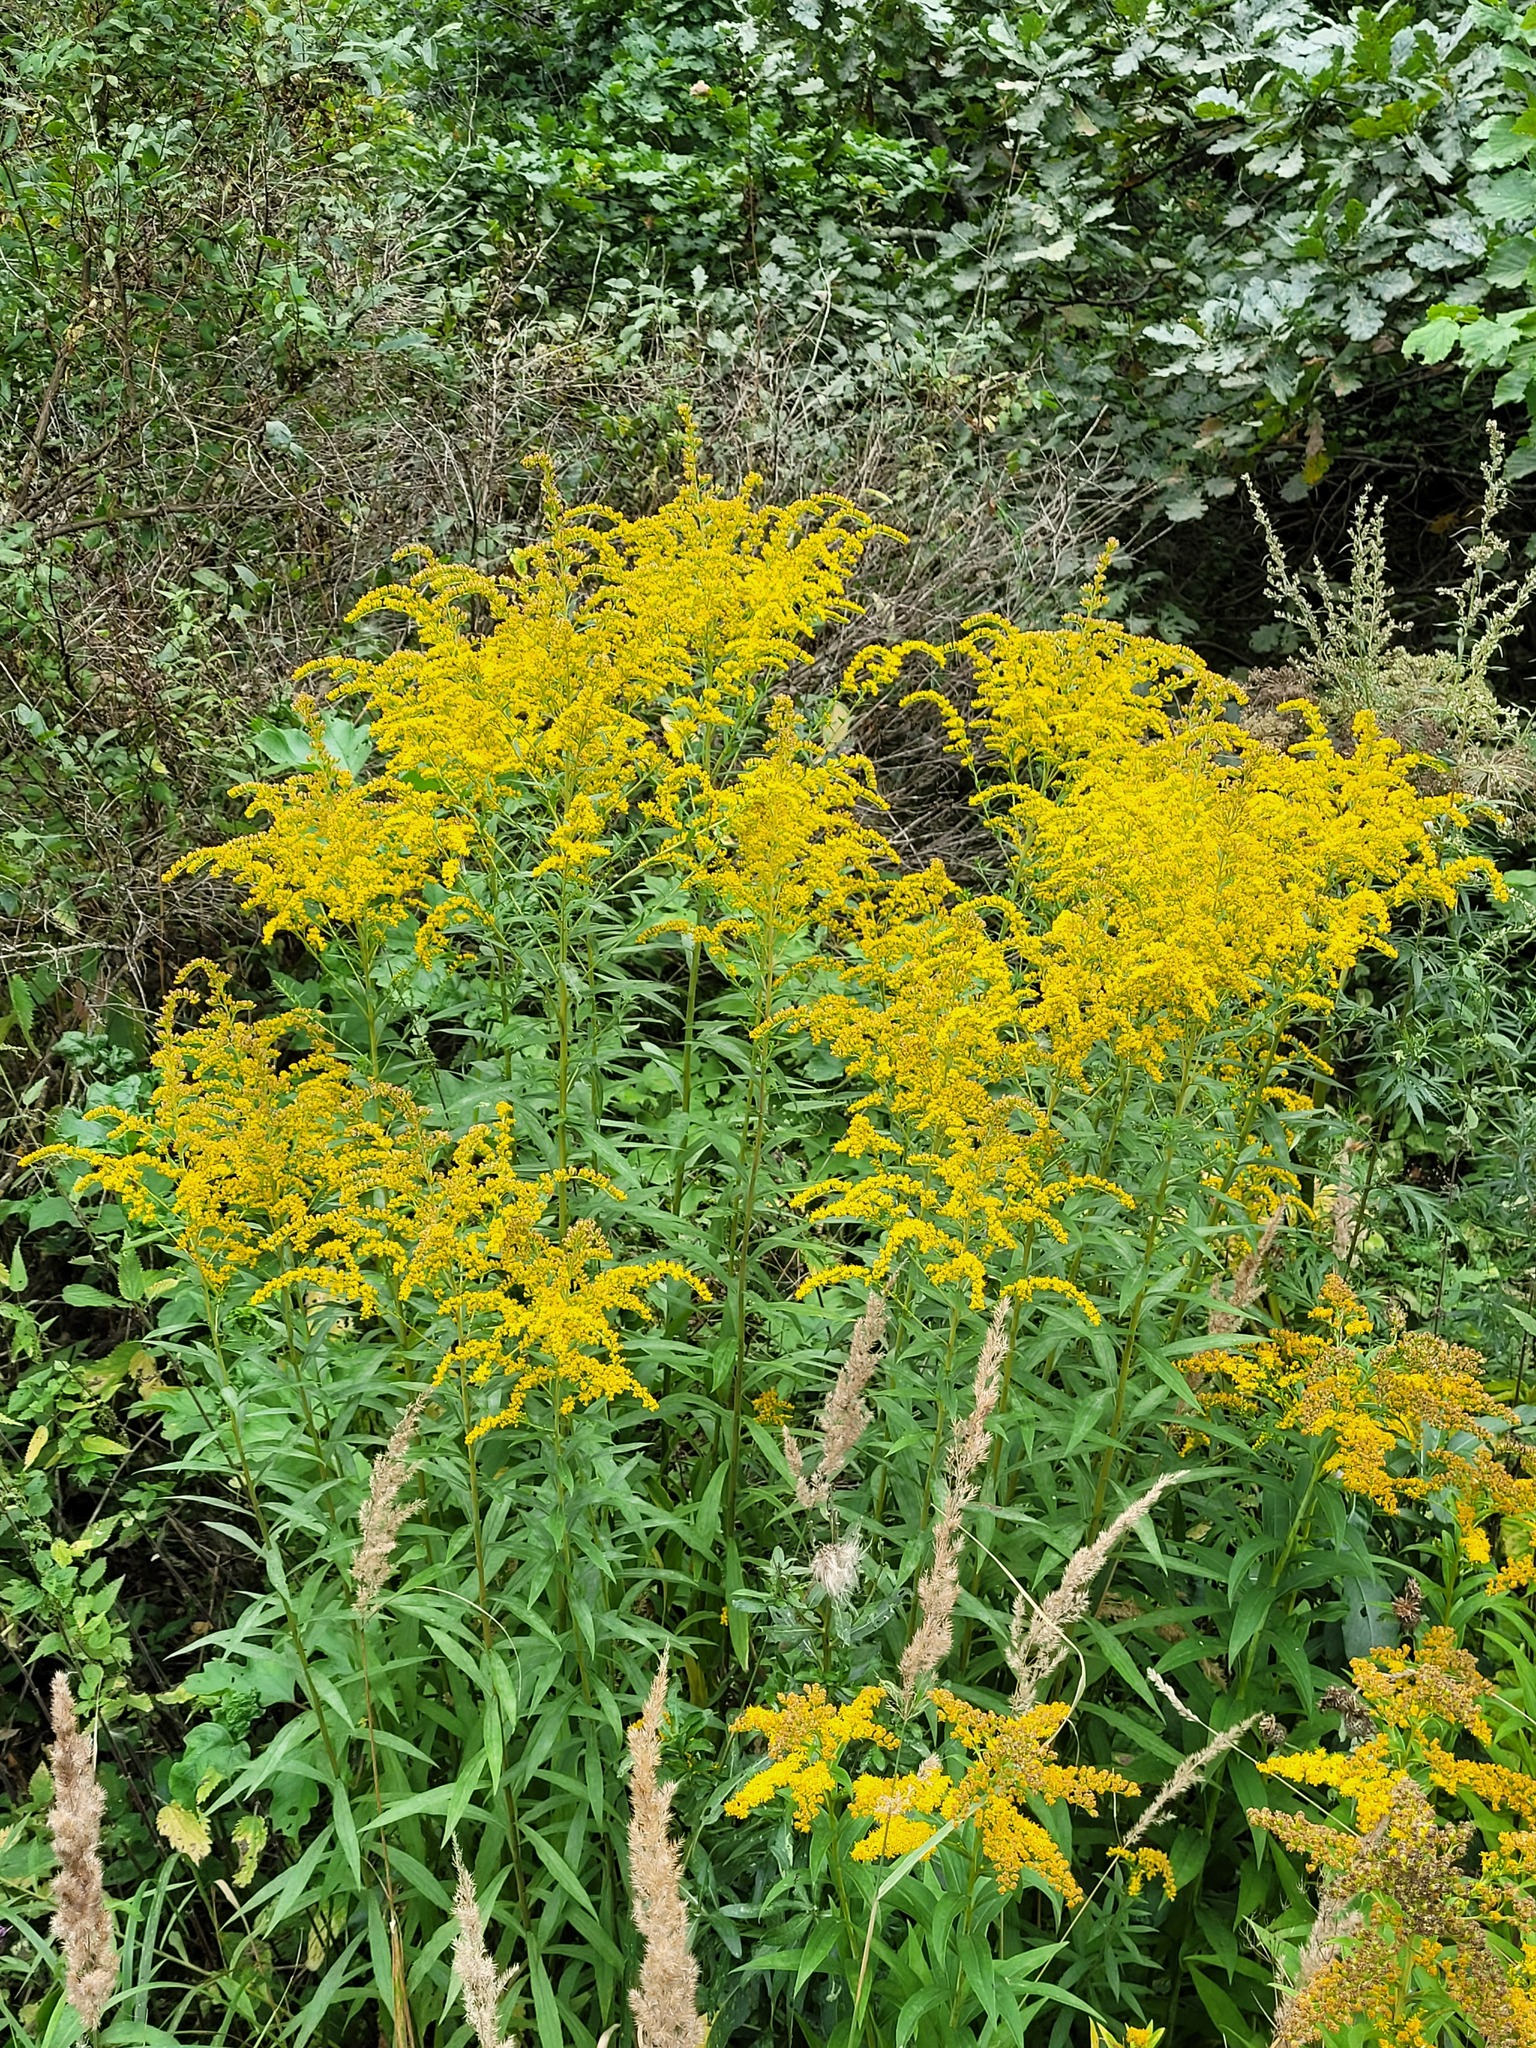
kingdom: Plantae
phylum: Tracheophyta
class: Magnoliopsida
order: Asterales
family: Asteraceae
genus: Solidago
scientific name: Solidago canadensis
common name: Canada goldenrod
